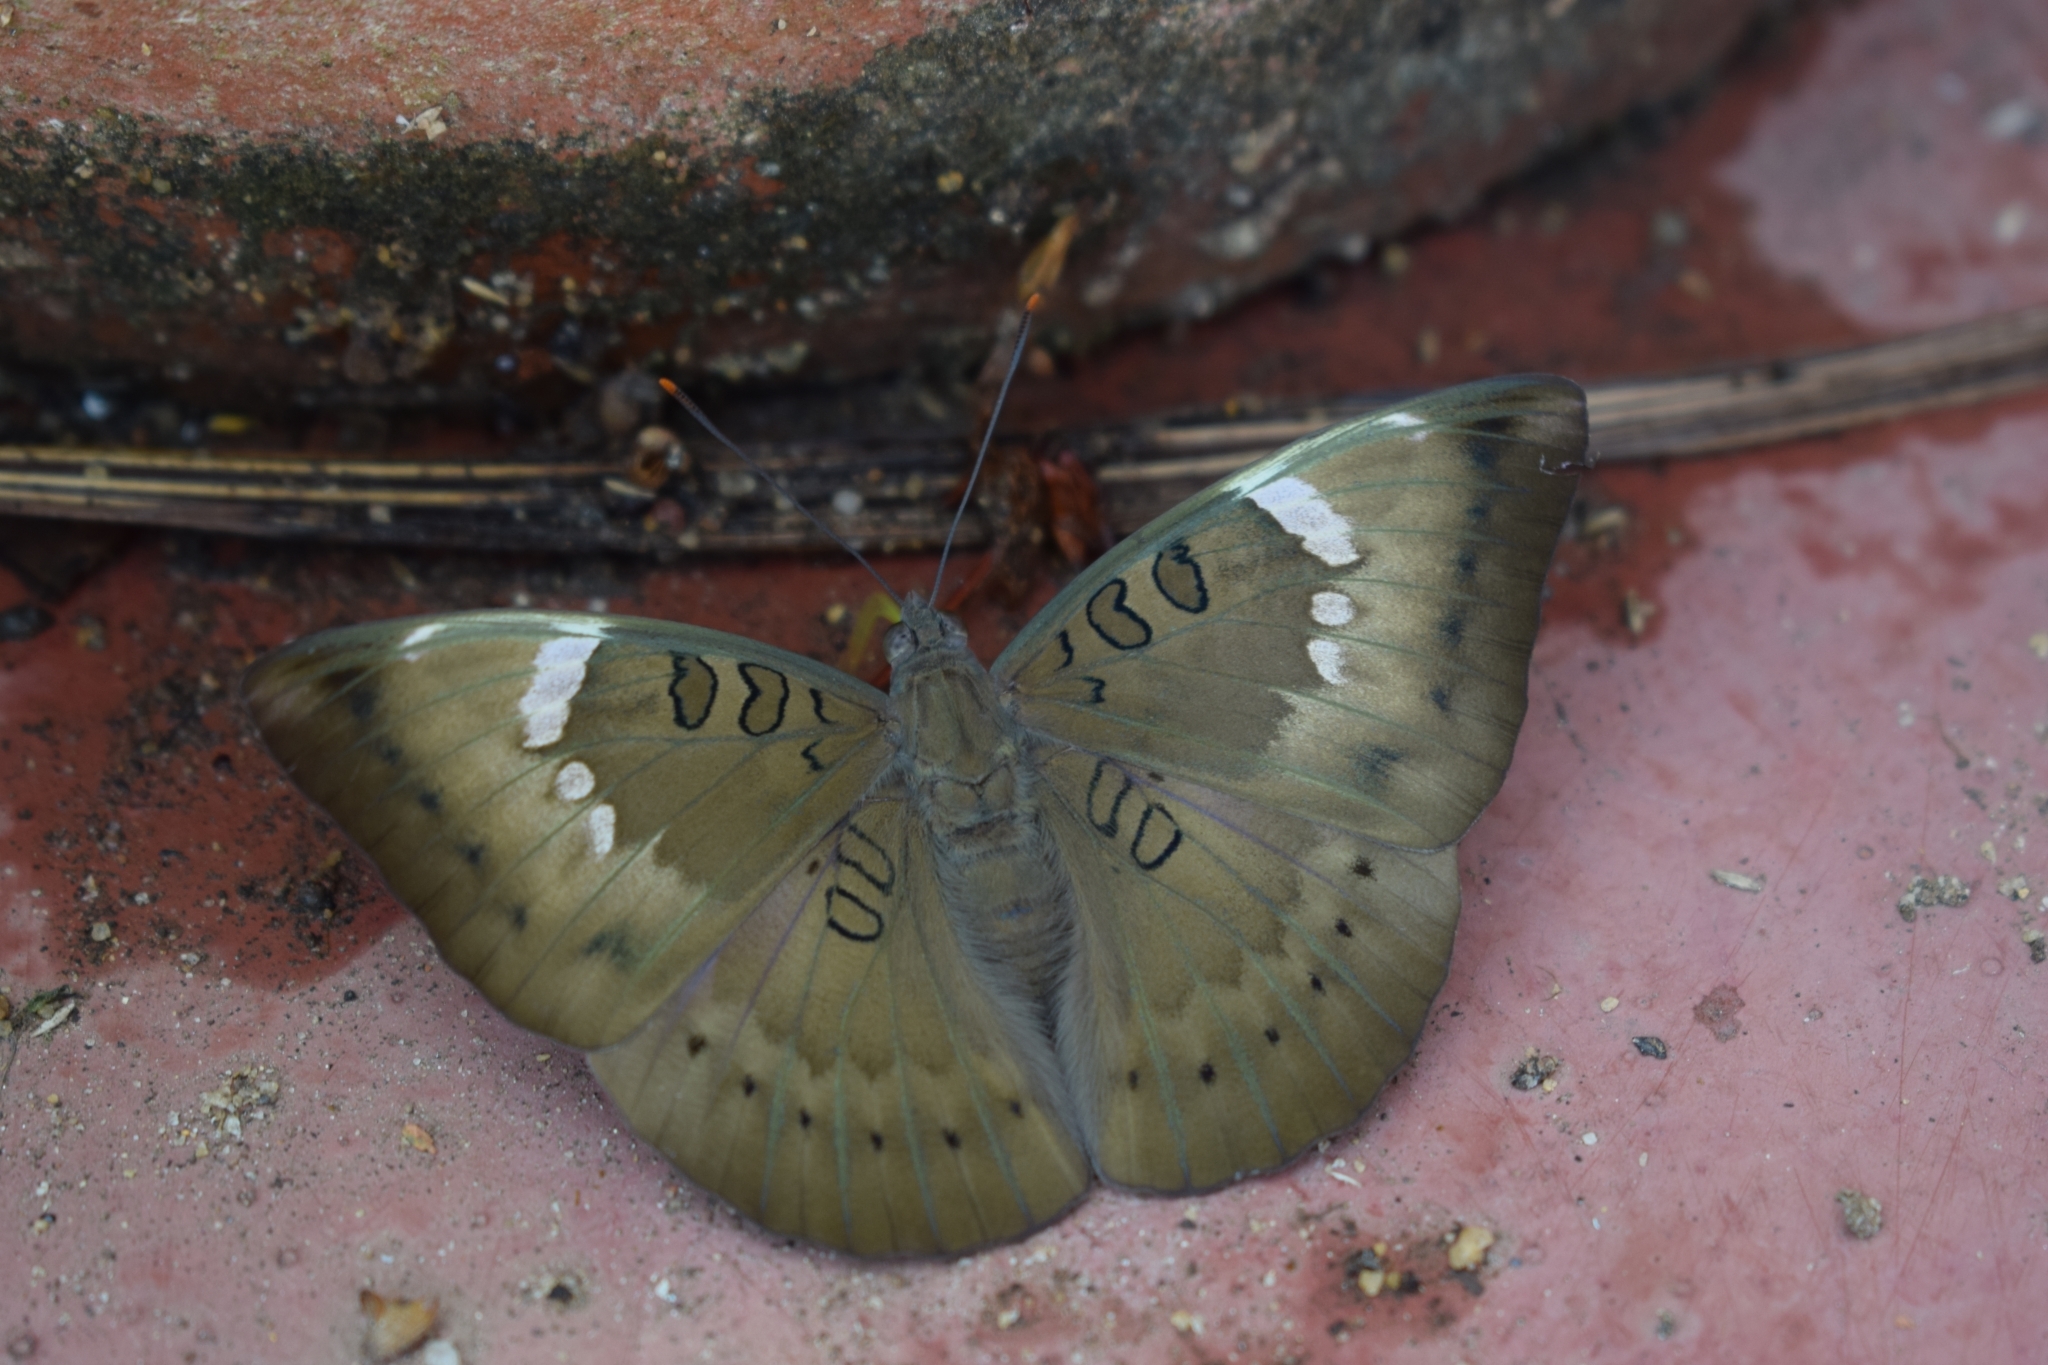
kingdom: Animalia
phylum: Arthropoda
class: Insecta
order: Lepidoptera
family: Nymphalidae
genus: Euthalia
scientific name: Euthalia aconthea
